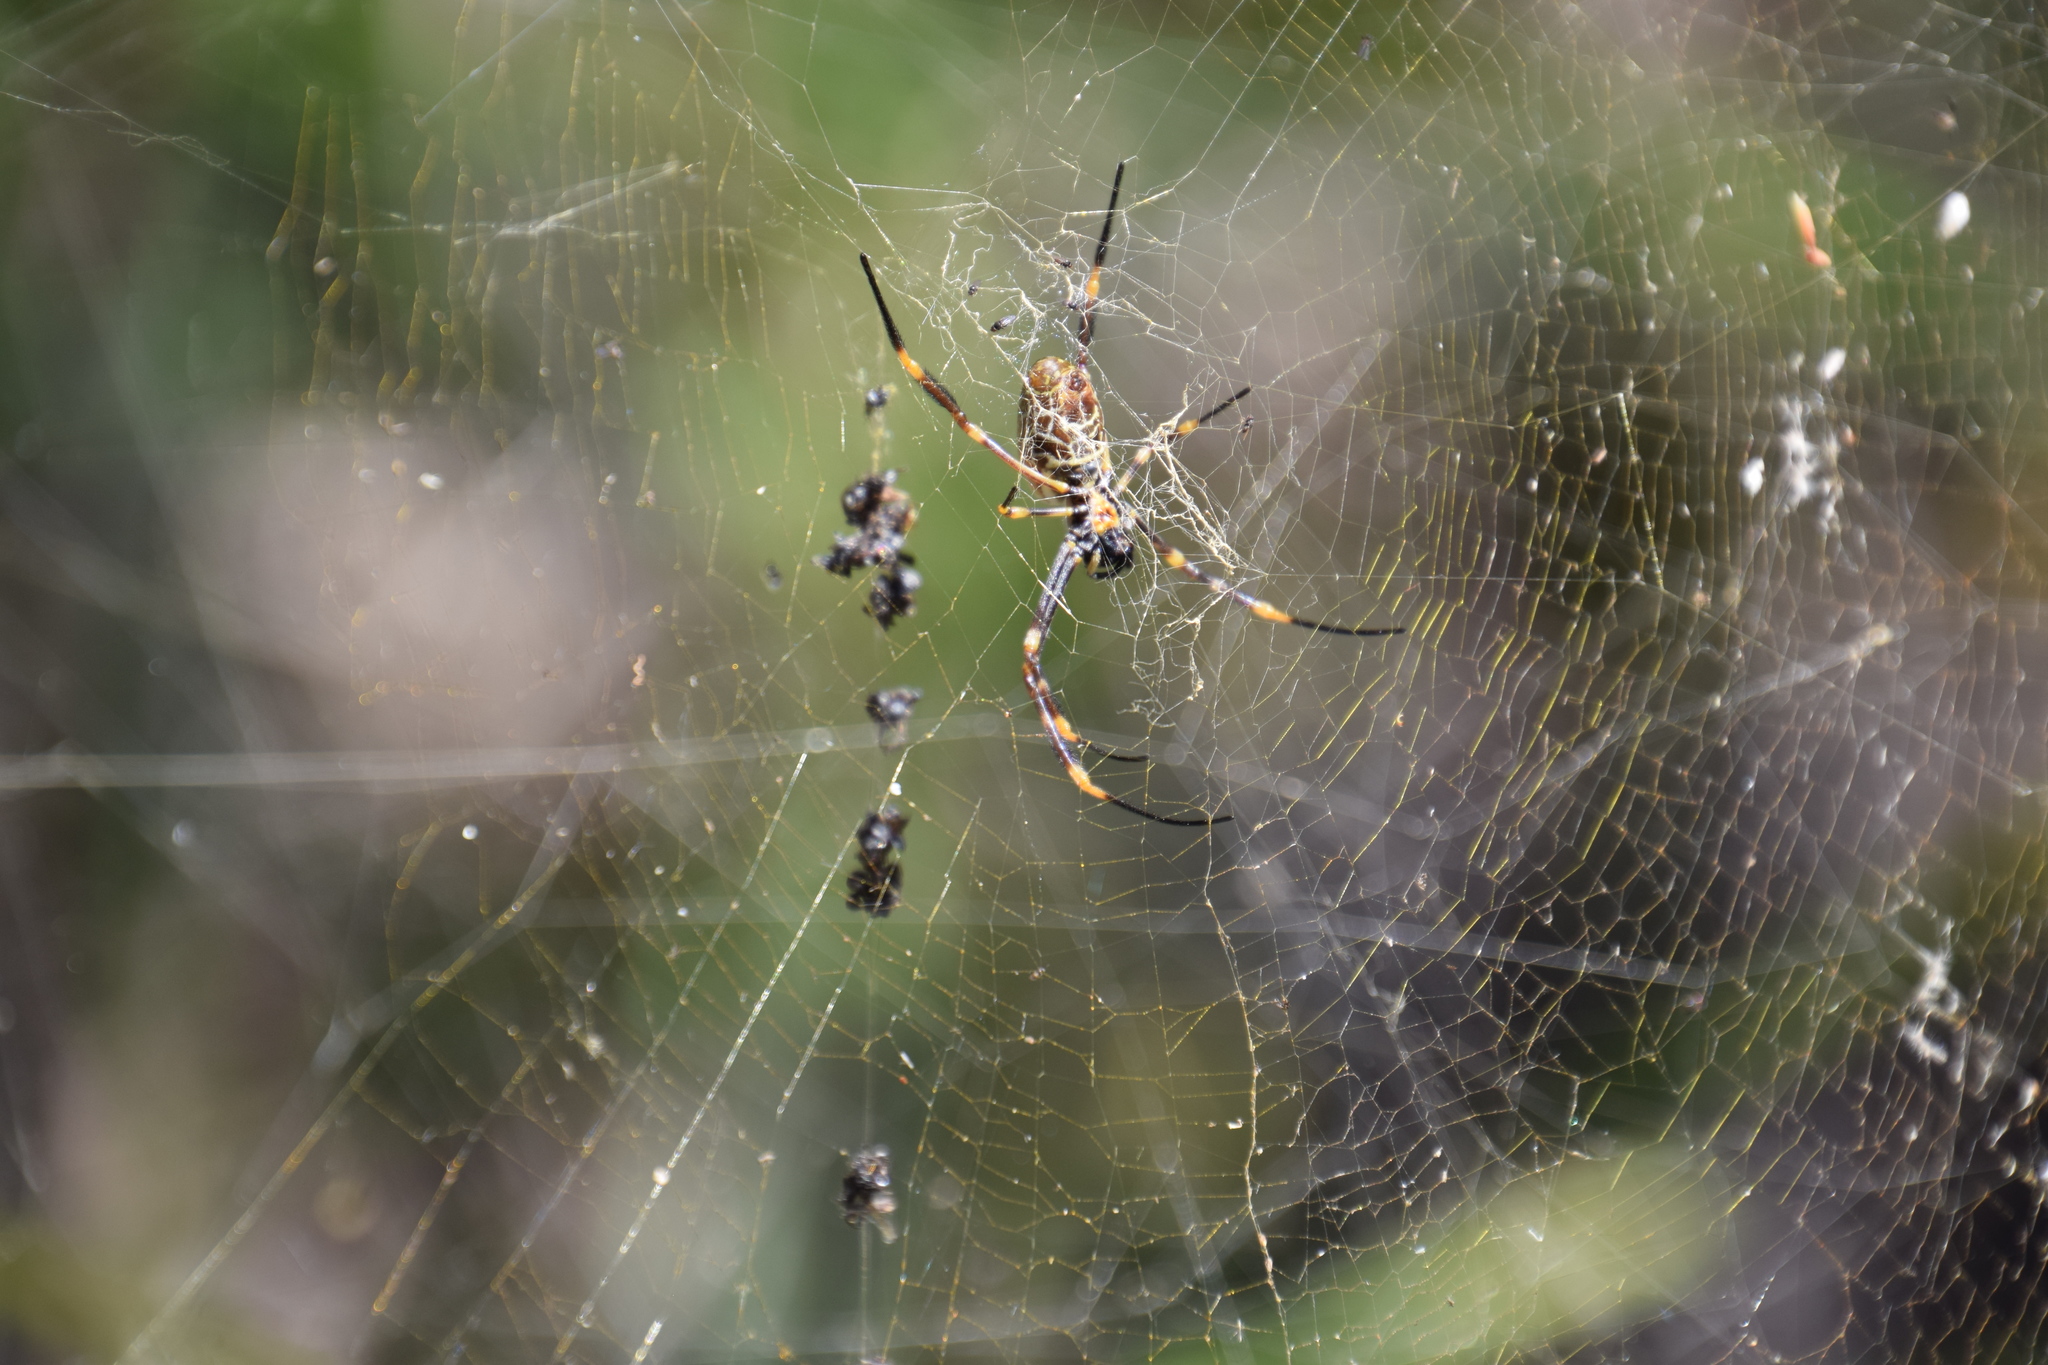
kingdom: Animalia
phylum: Arthropoda
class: Arachnida
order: Araneae
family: Araneidae
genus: Trichonephila
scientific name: Trichonephila plumipes
